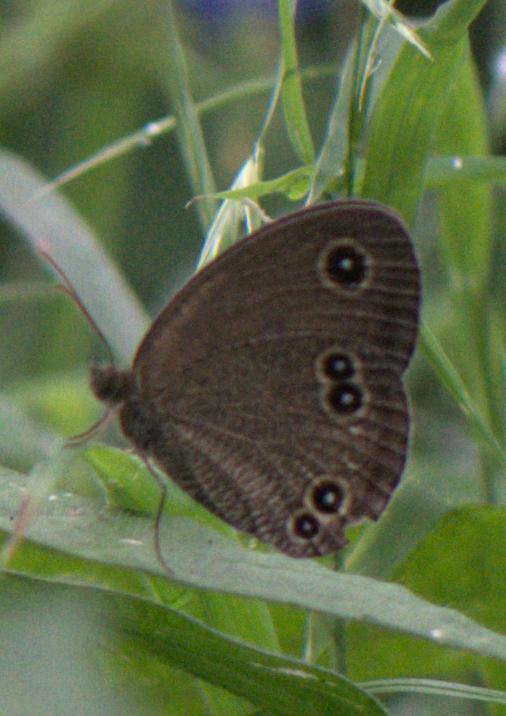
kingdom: Animalia
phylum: Arthropoda
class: Insecta
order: Lepidoptera
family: Nymphalidae
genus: Callerebia
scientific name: Callerebia hyagriva
